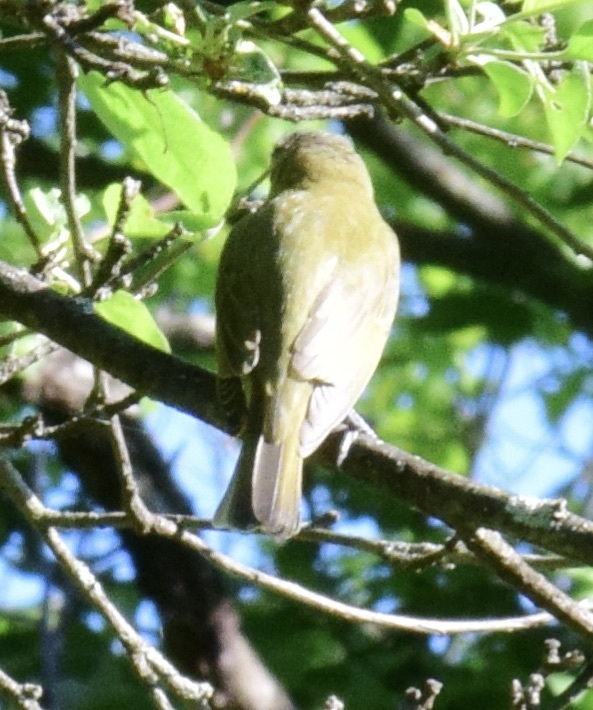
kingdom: Animalia
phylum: Chordata
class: Aves
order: Passeriformes
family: Vireonidae
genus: Vireo
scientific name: Vireo olivaceus
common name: Red-eyed vireo
